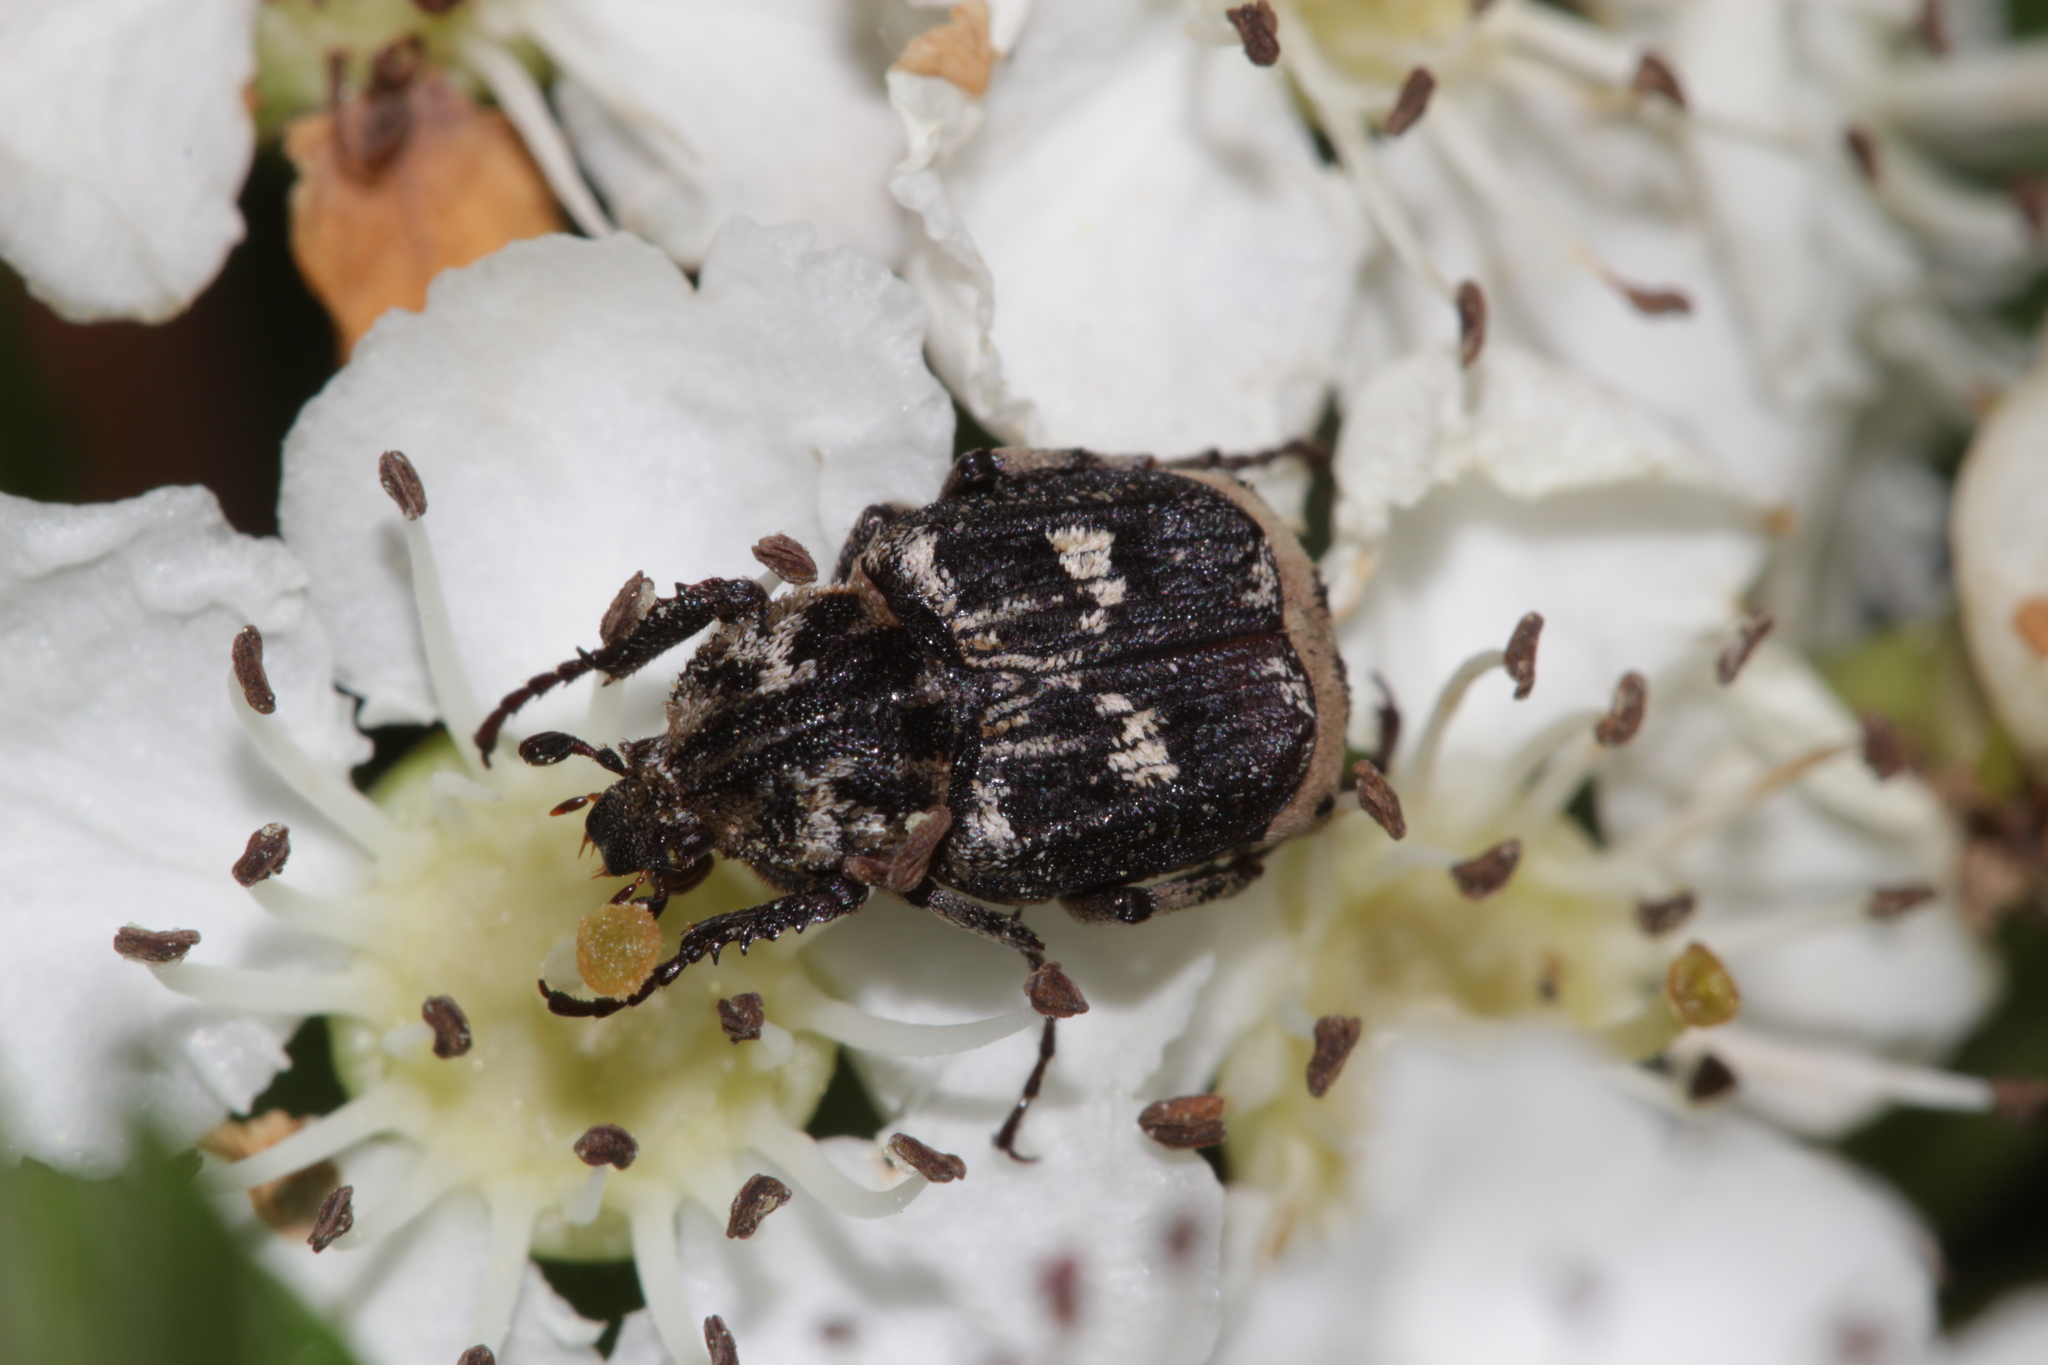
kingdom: Animalia
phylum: Arthropoda
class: Insecta
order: Coleoptera
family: Scarabaeidae
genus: Valgus
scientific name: Valgus hemipterus
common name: Bug flower chafer
